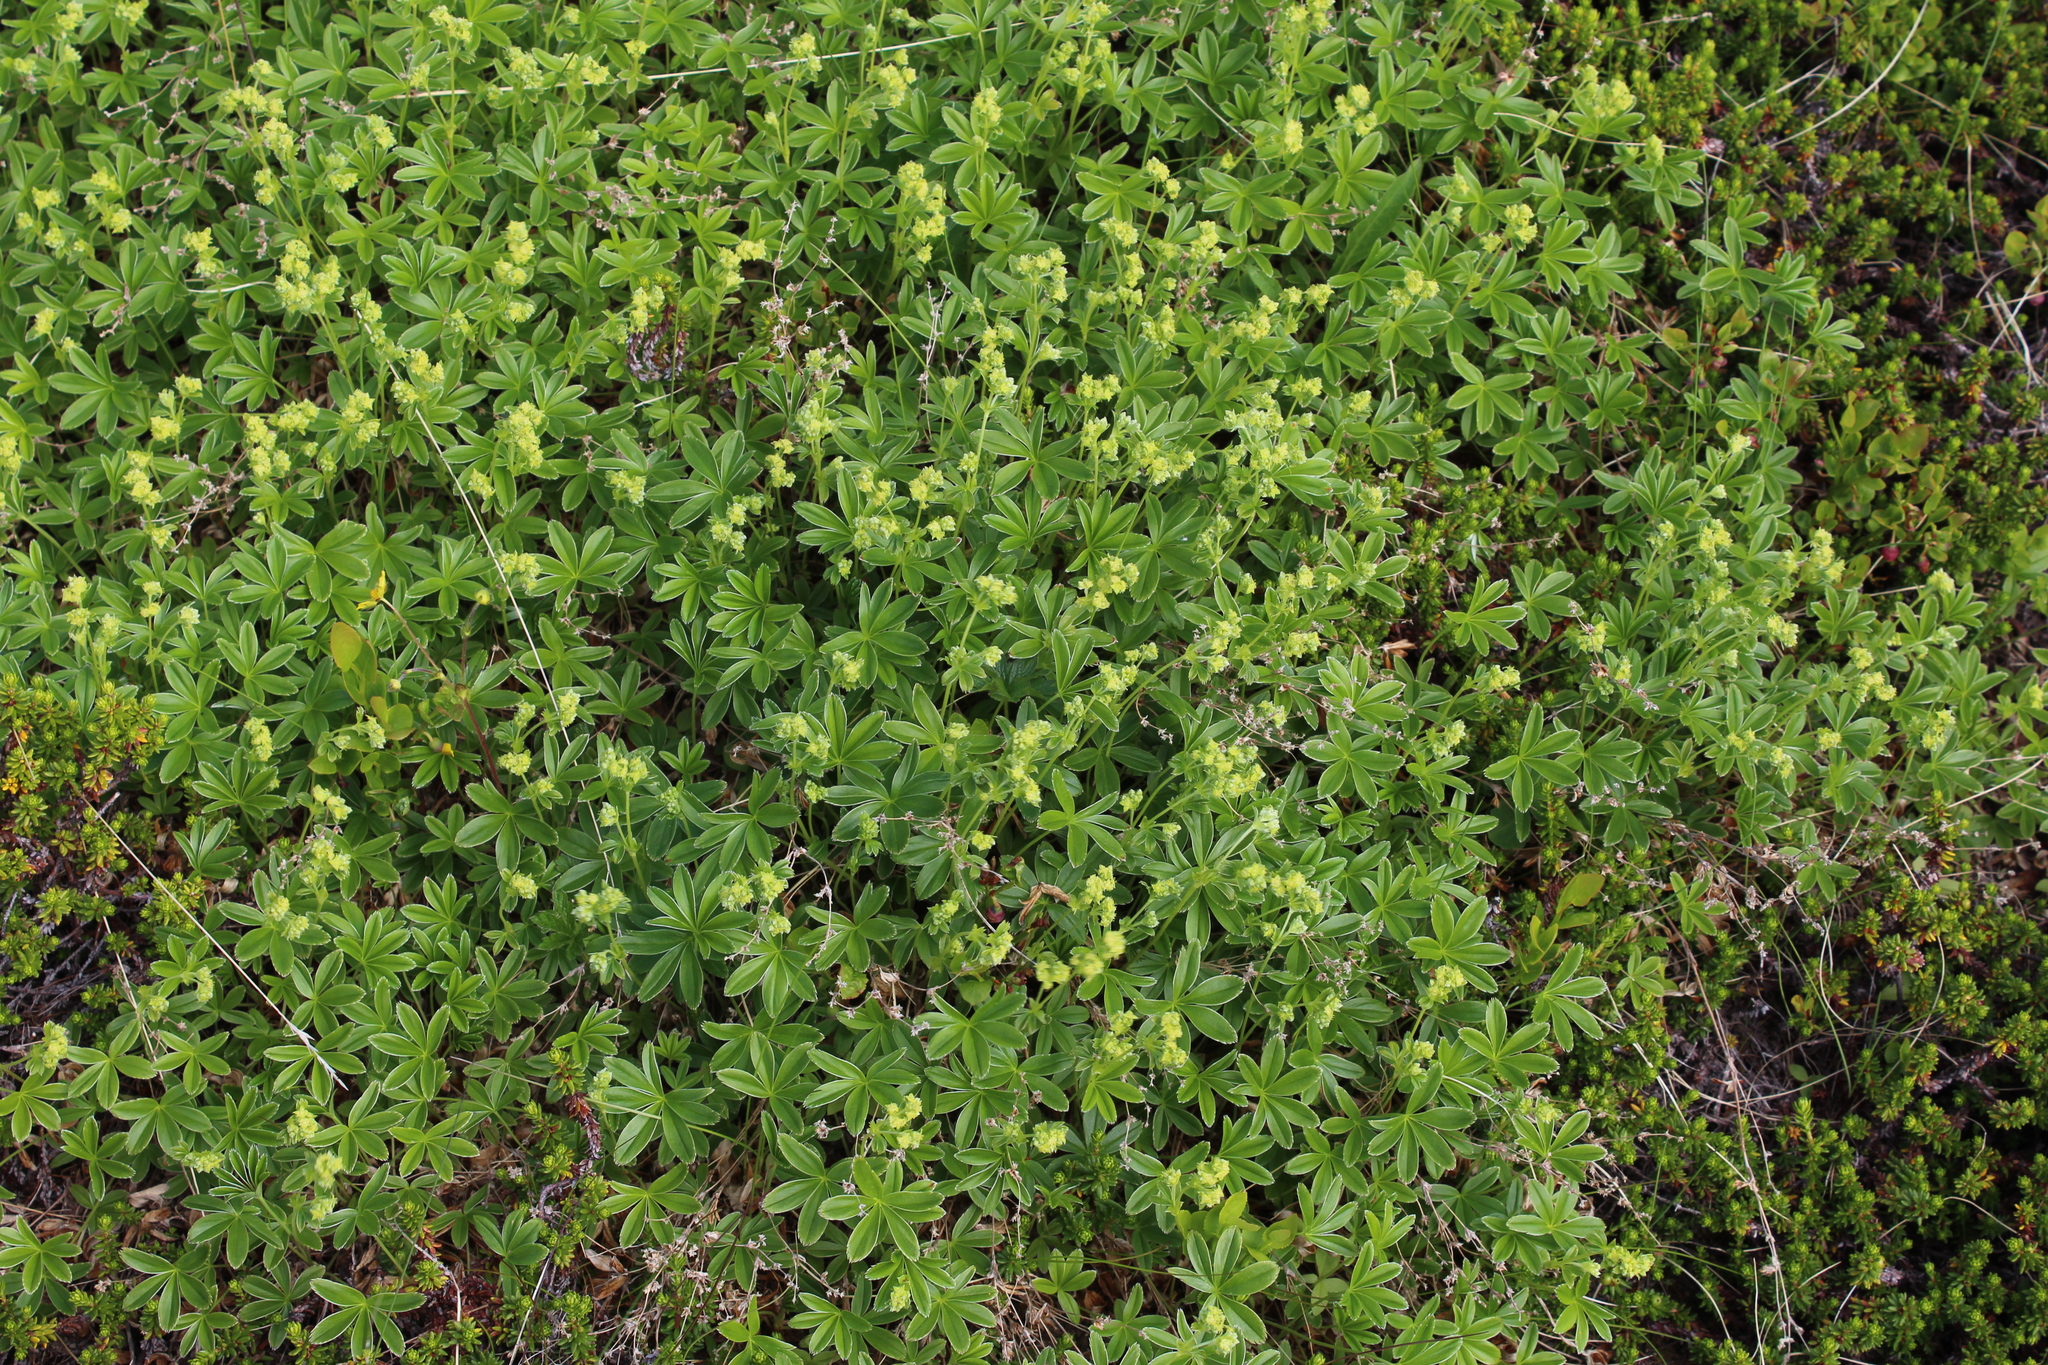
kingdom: Plantae
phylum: Tracheophyta
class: Magnoliopsida
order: Rosales
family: Rosaceae
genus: Alchemilla
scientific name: Alchemilla alpina
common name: Alpine lady's-mantle
